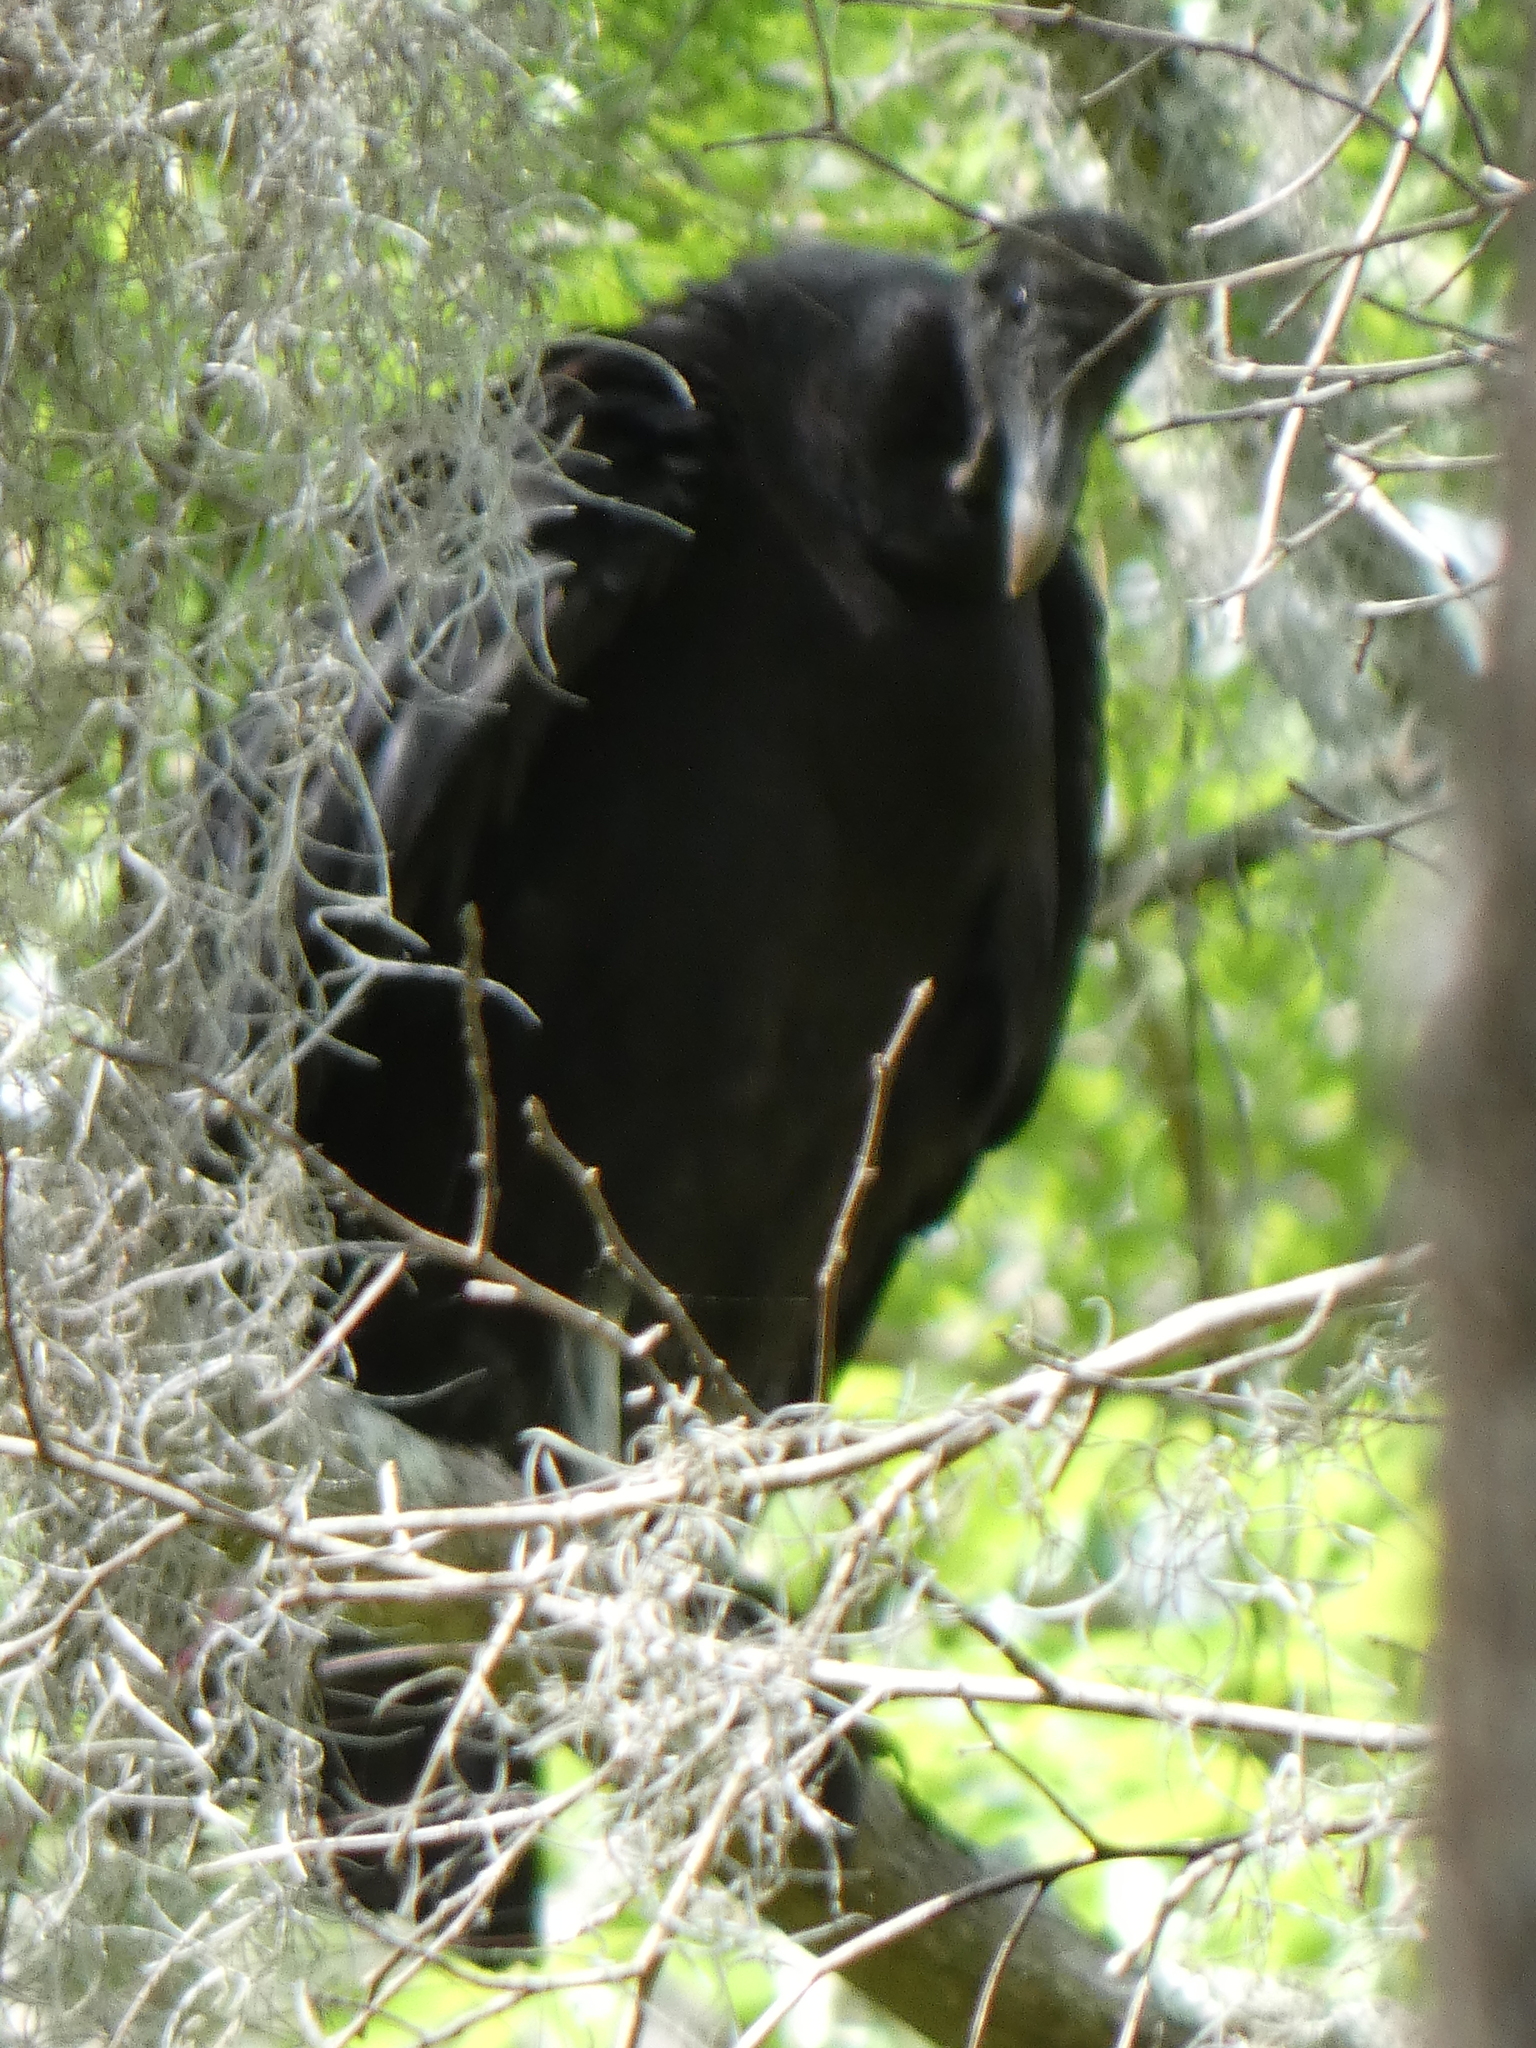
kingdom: Animalia
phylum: Chordata
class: Aves
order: Accipitriformes
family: Cathartidae
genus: Coragyps
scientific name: Coragyps atratus
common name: Black vulture
